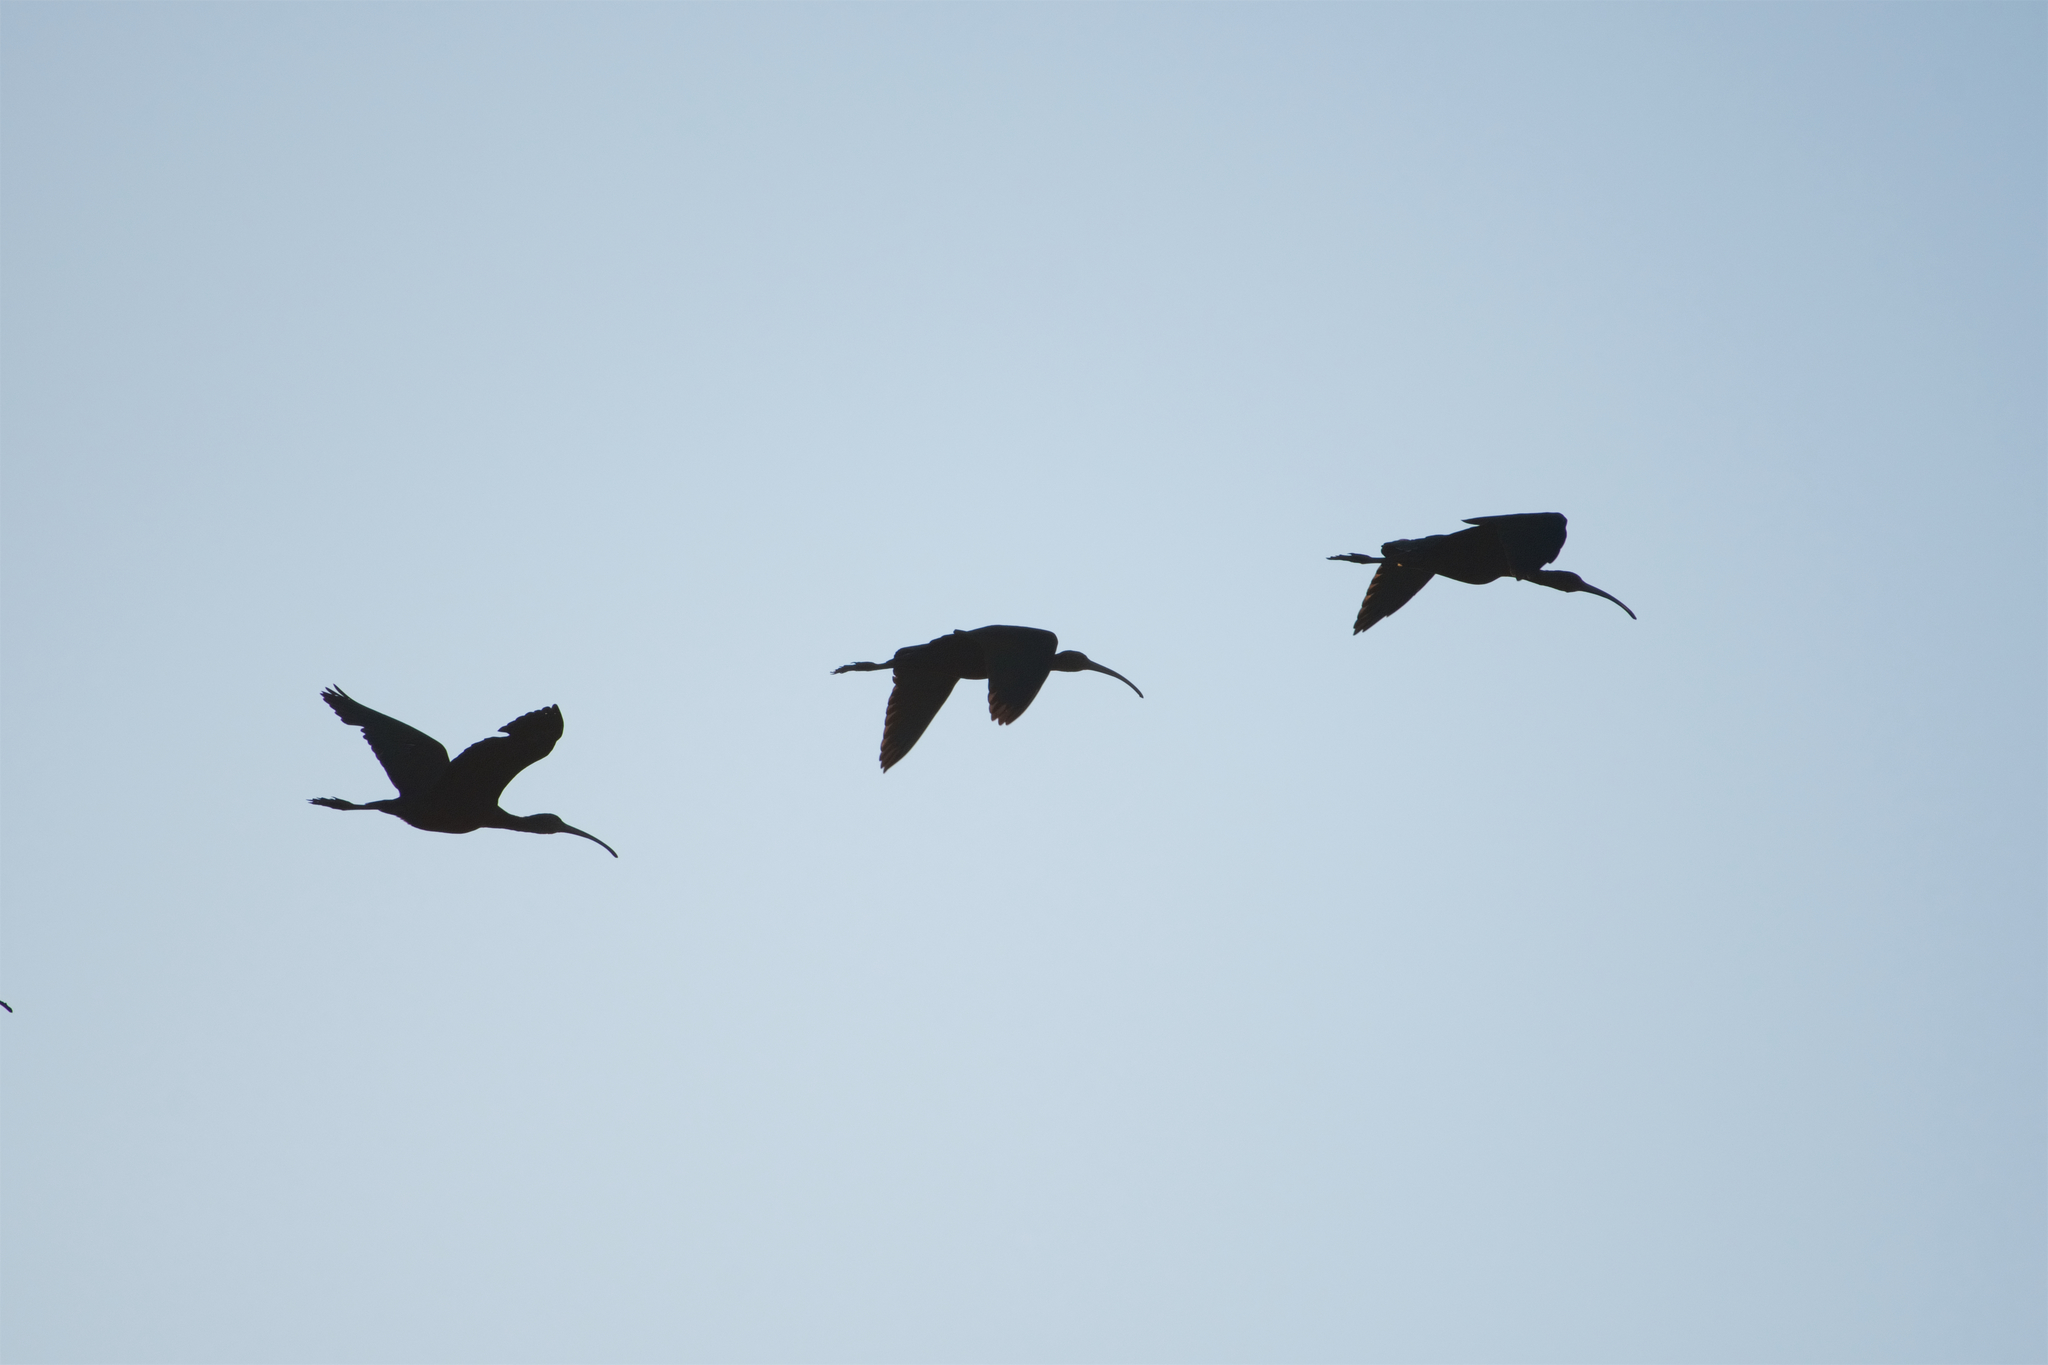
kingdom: Animalia
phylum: Chordata
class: Aves
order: Pelecaniformes
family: Threskiornithidae
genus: Plegadis
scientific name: Plegadis chihi
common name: White-faced ibis
